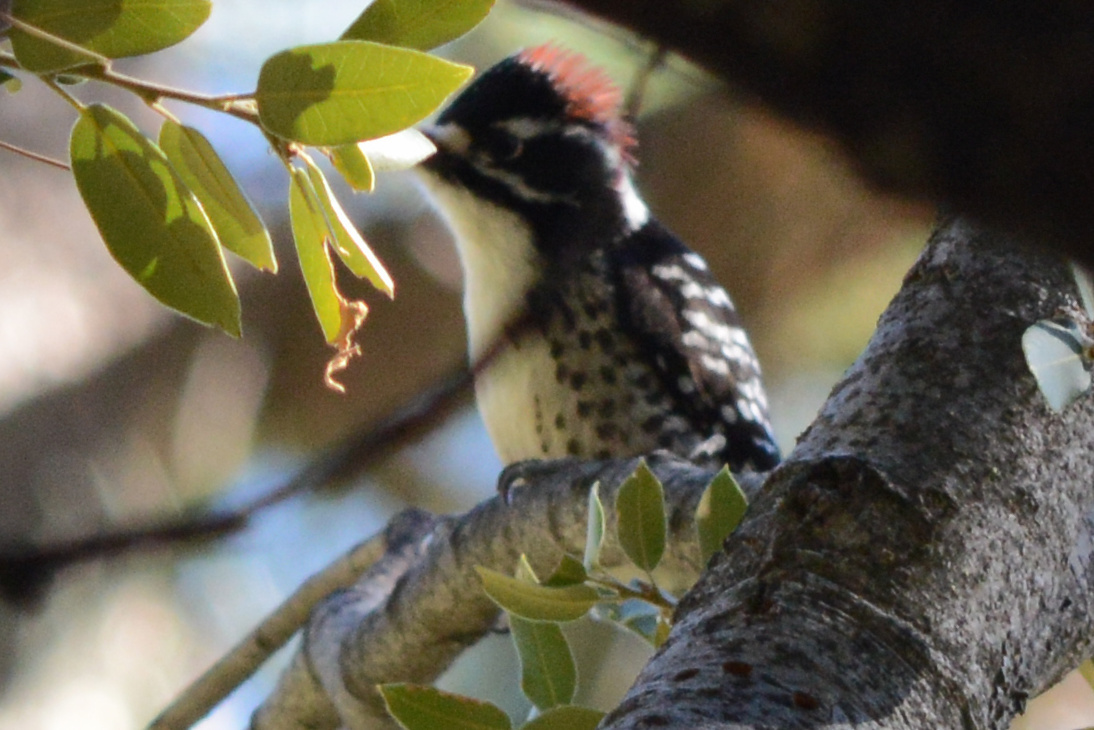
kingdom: Animalia
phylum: Chordata
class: Aves
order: Piciformes
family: Picidae
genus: Dryobates
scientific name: Dryobates nuttallii
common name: Nuttall's woodpecker
